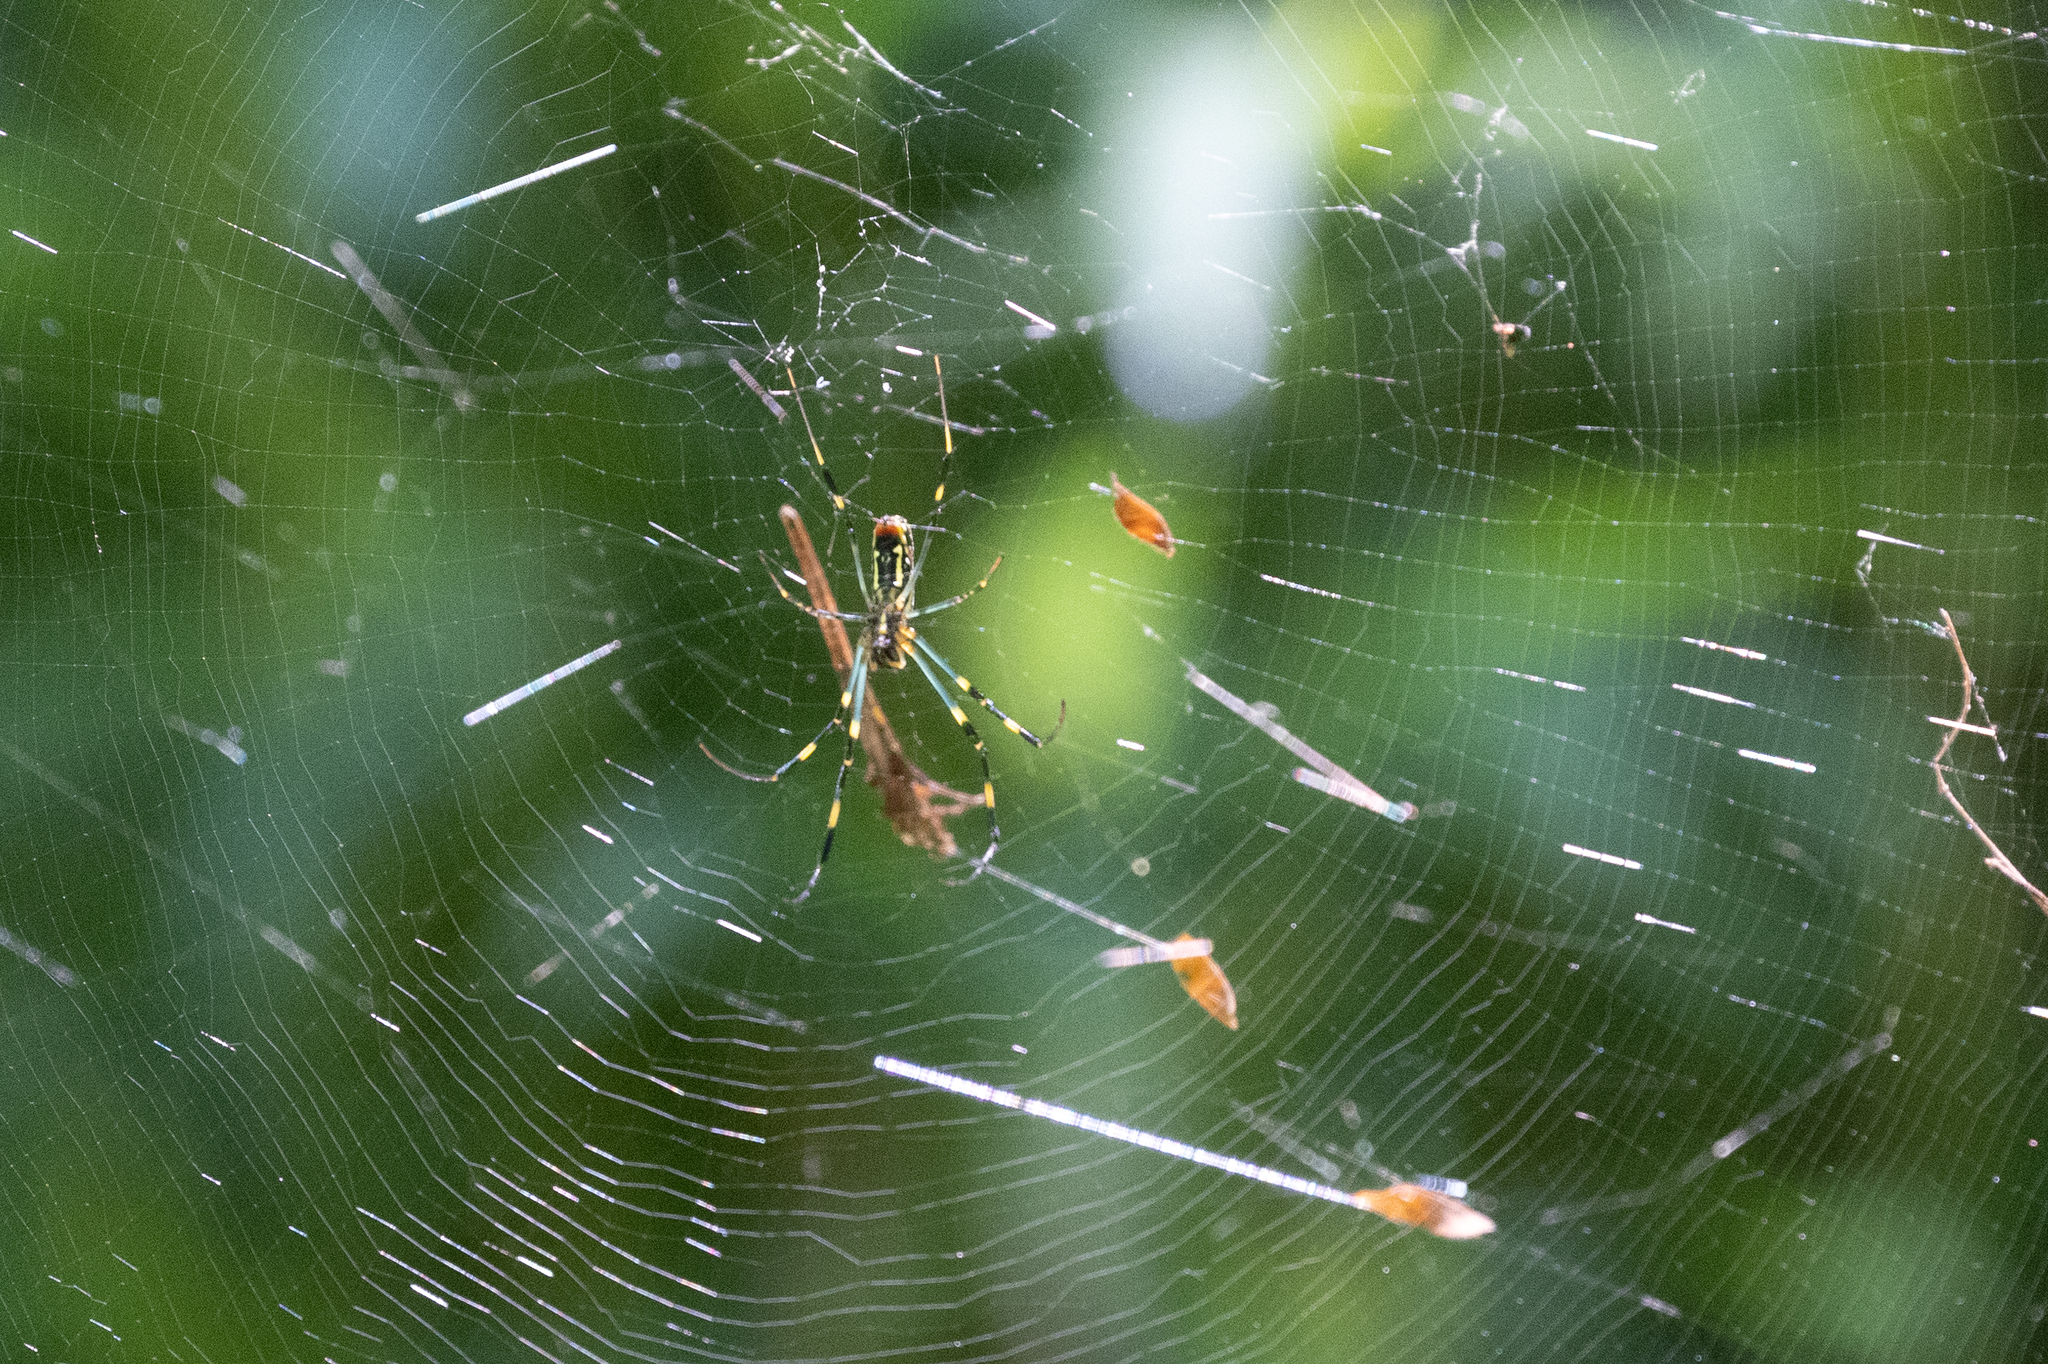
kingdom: Animalia
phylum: Arthropoda
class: Arachnida
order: Araneae
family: Araneidae
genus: Trichonephila
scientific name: Trichonephila clavata
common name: Jorō spider
